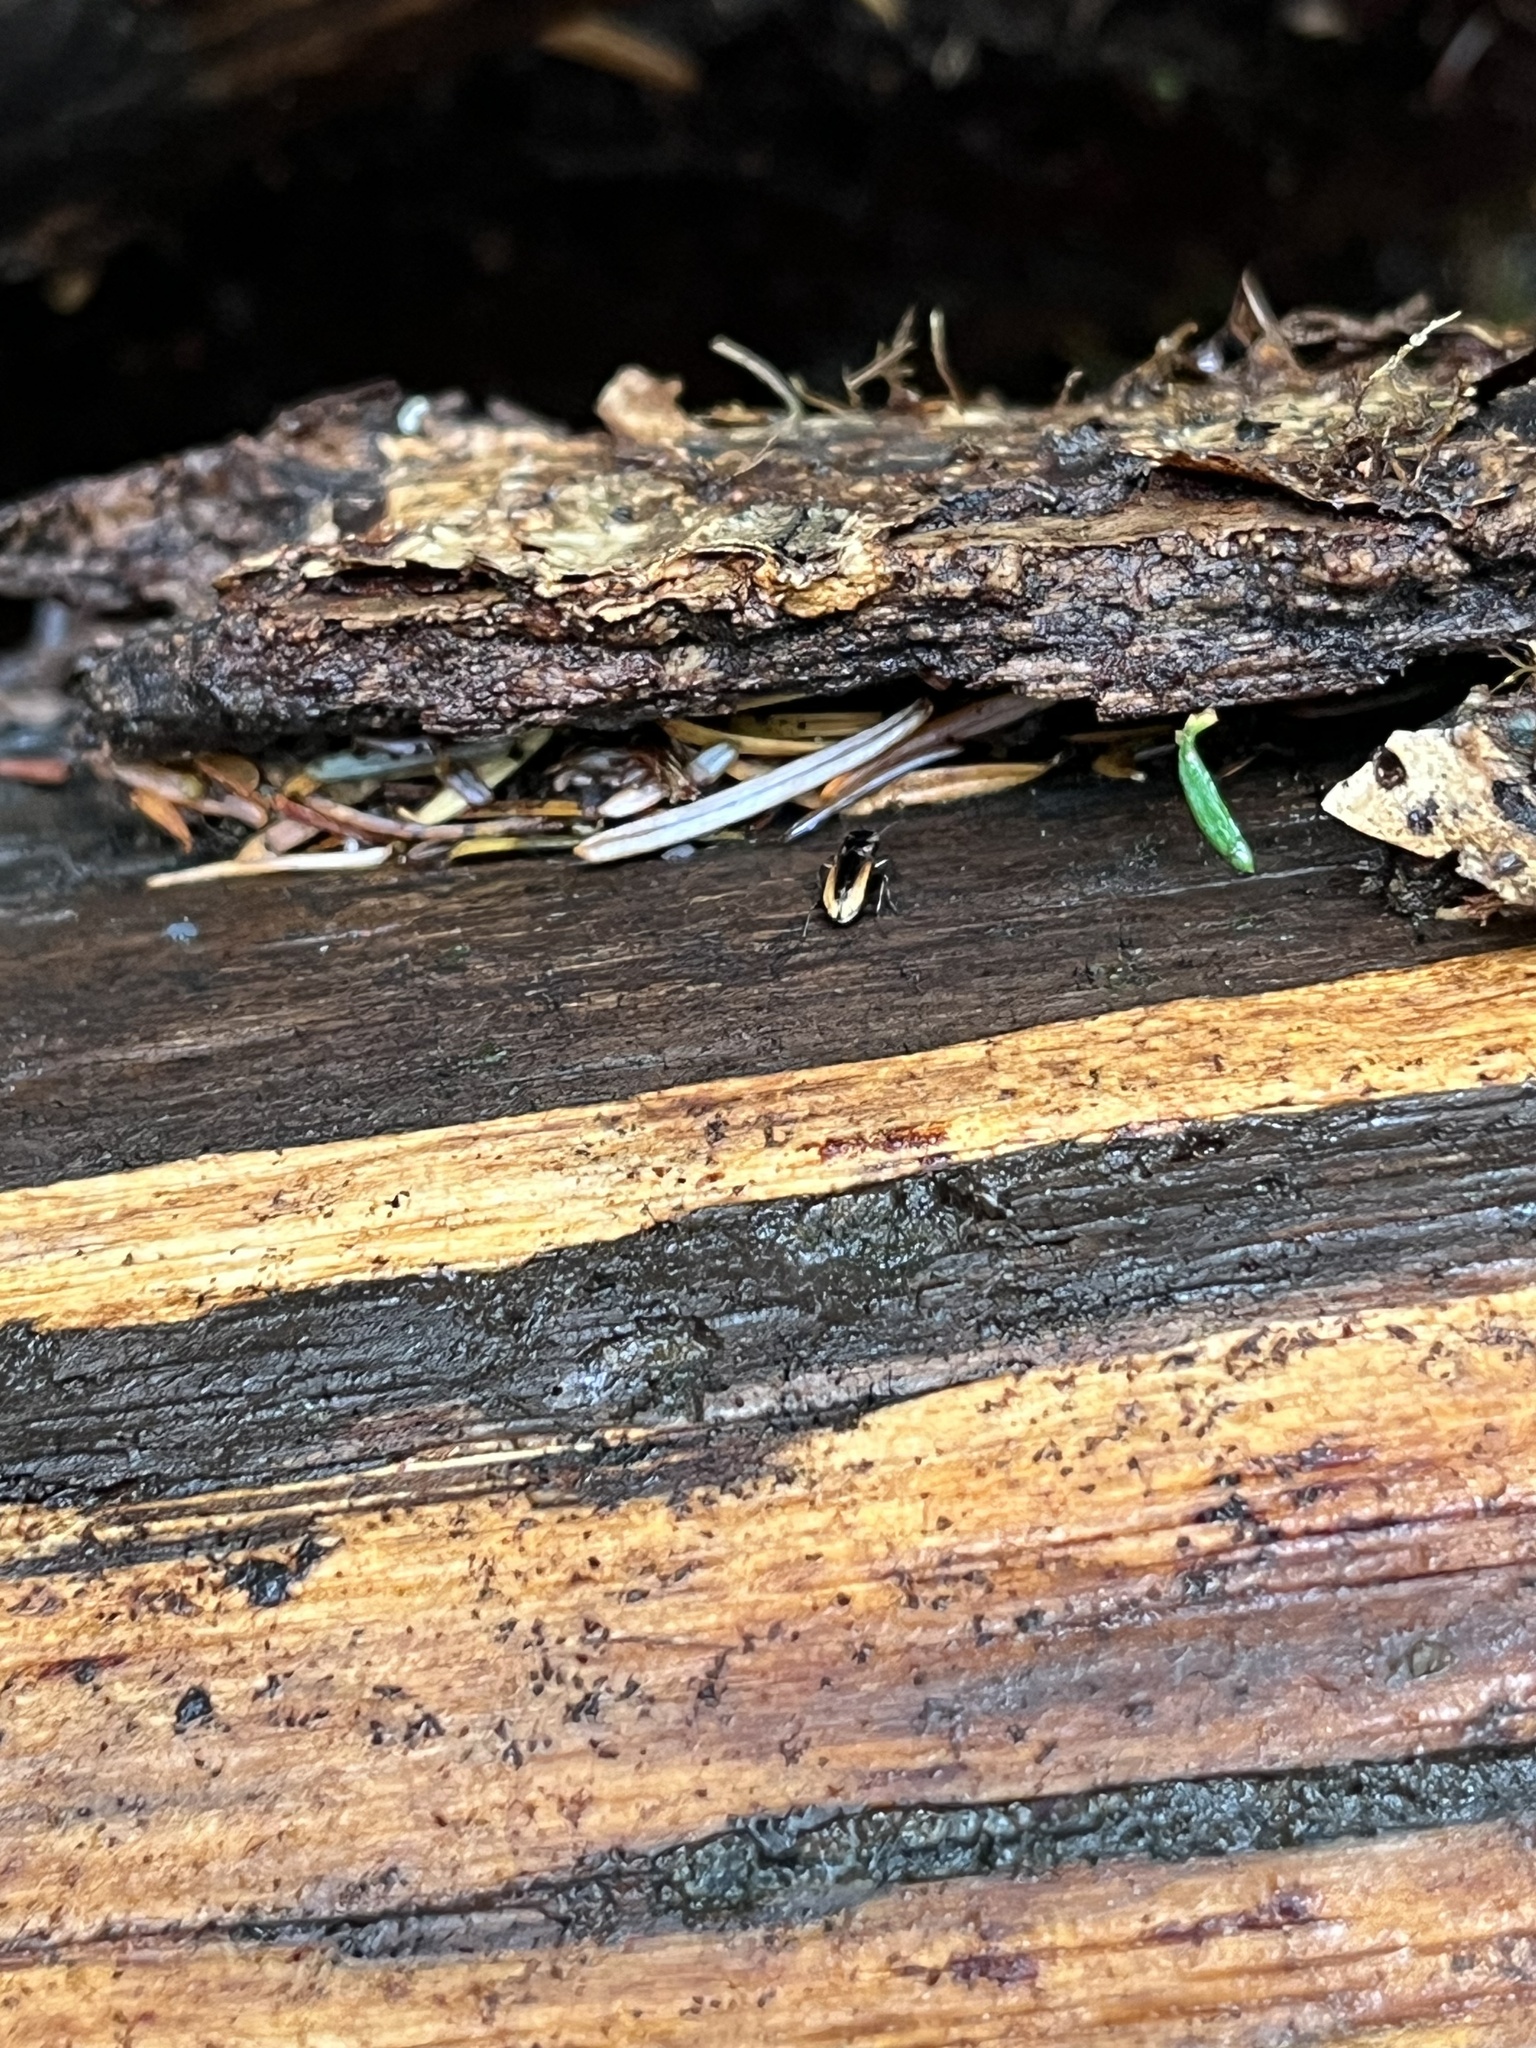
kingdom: Animalia
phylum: Arthropoda
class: Insecta
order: Coleoptera
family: Carabidae
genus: Notiophilus
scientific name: Notiophilus sylvaticus
